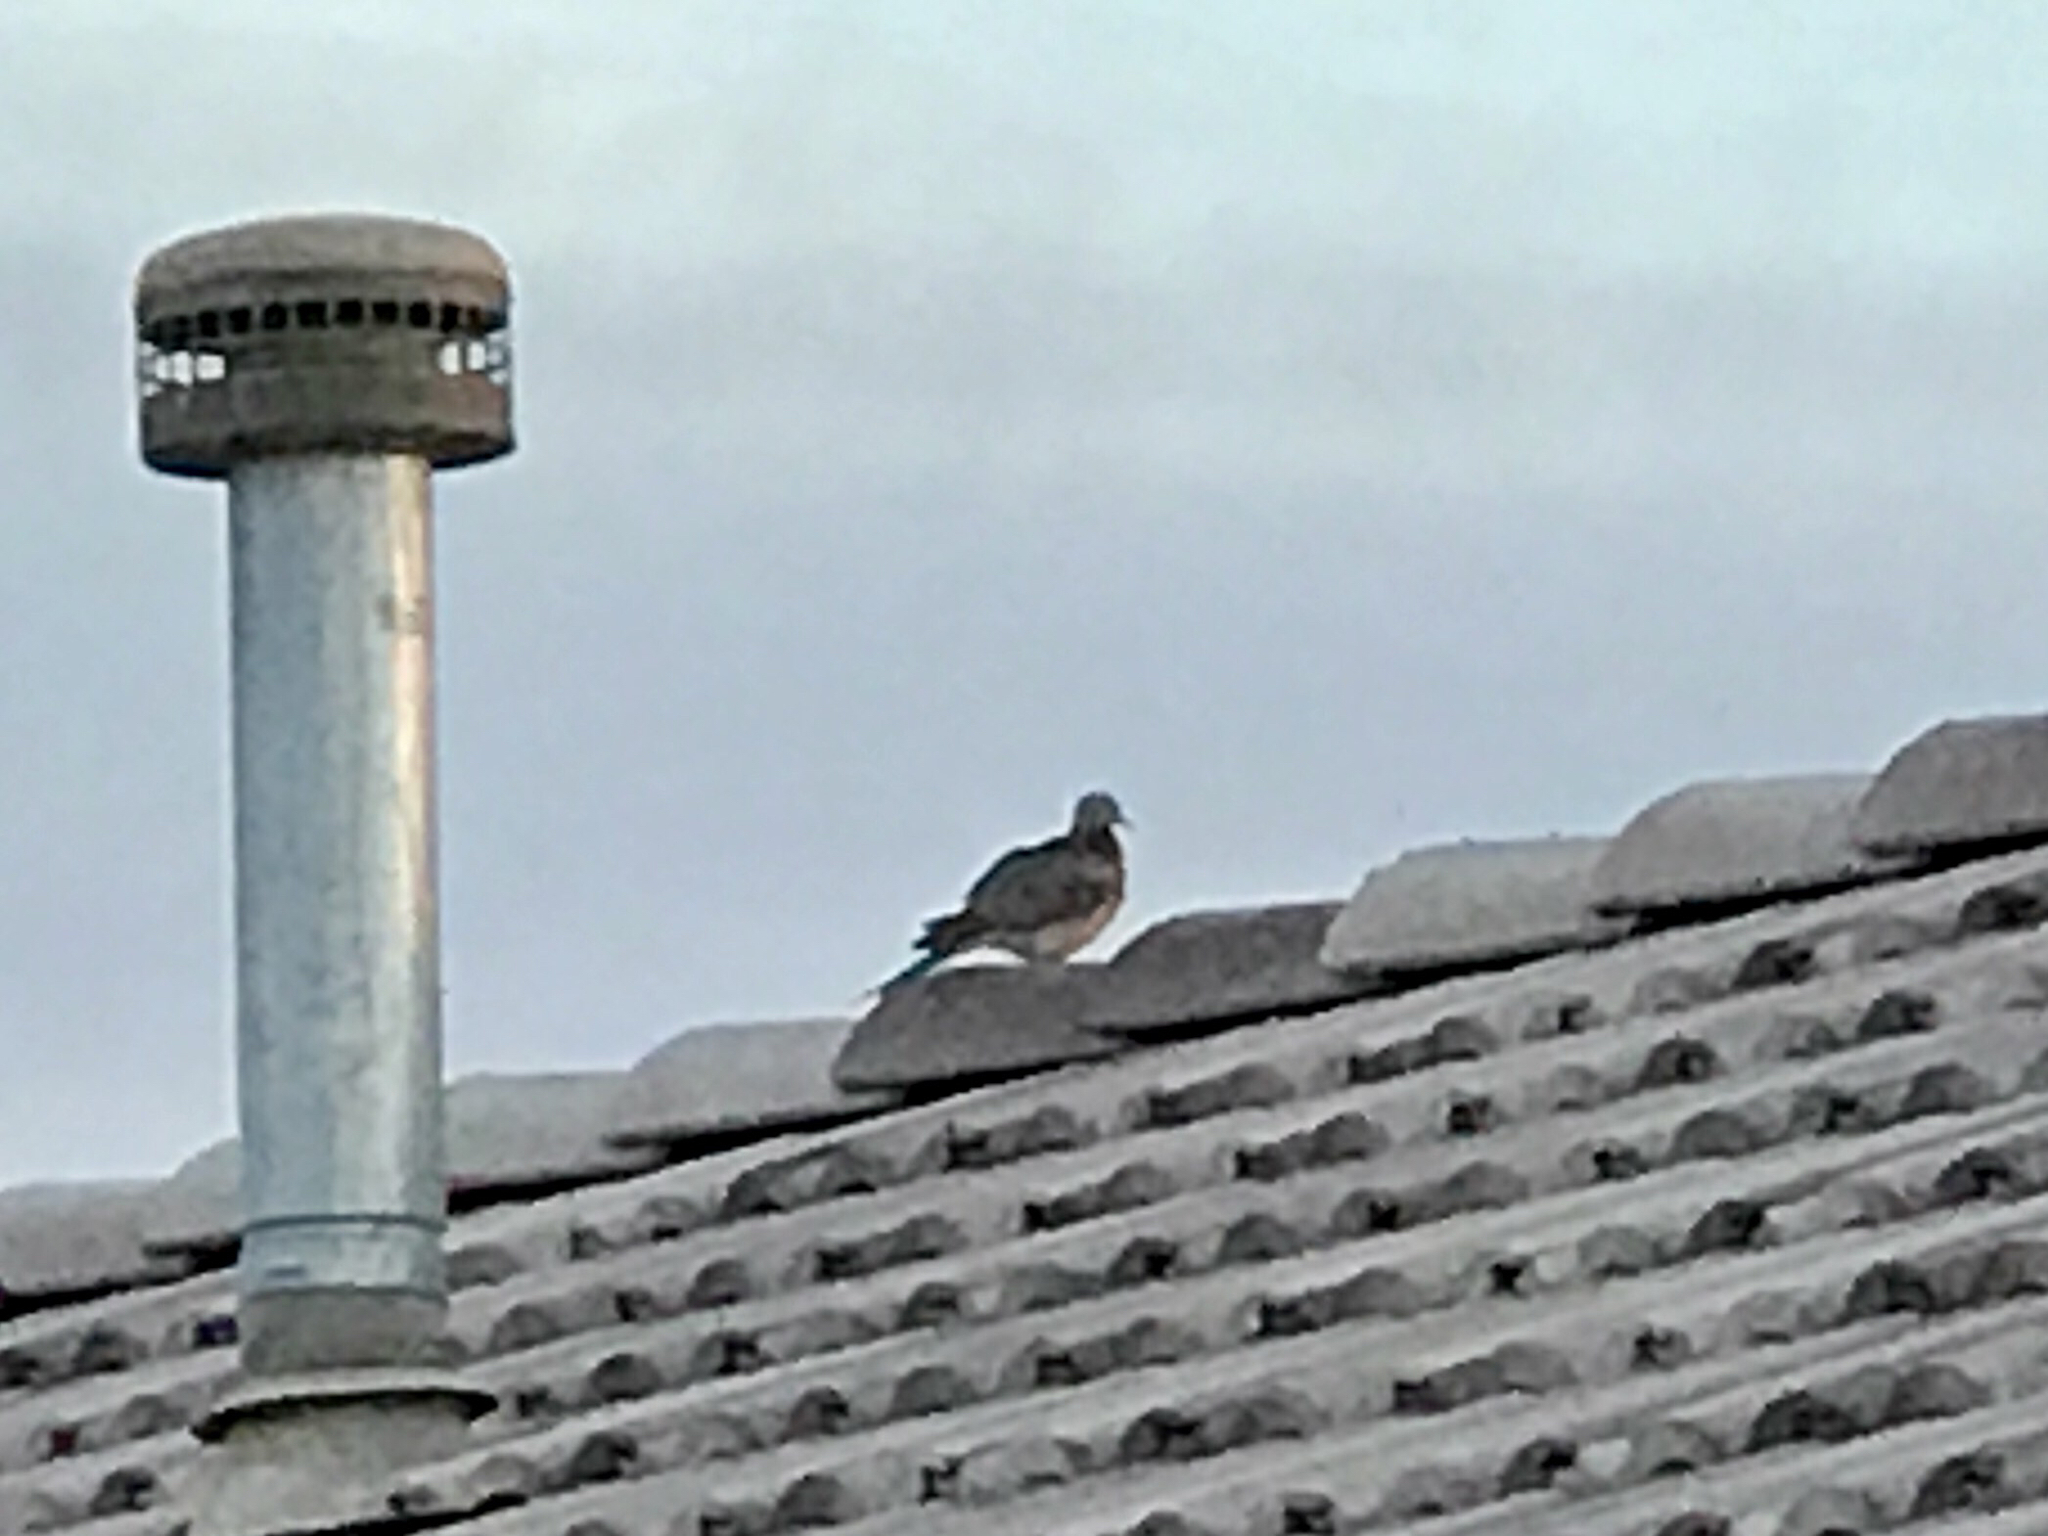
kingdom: Animalia
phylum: Chordata
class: Aves
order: Columbiformes
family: Columbidae
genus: Zenaida
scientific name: Zenaida macroura
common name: Mourning dove
